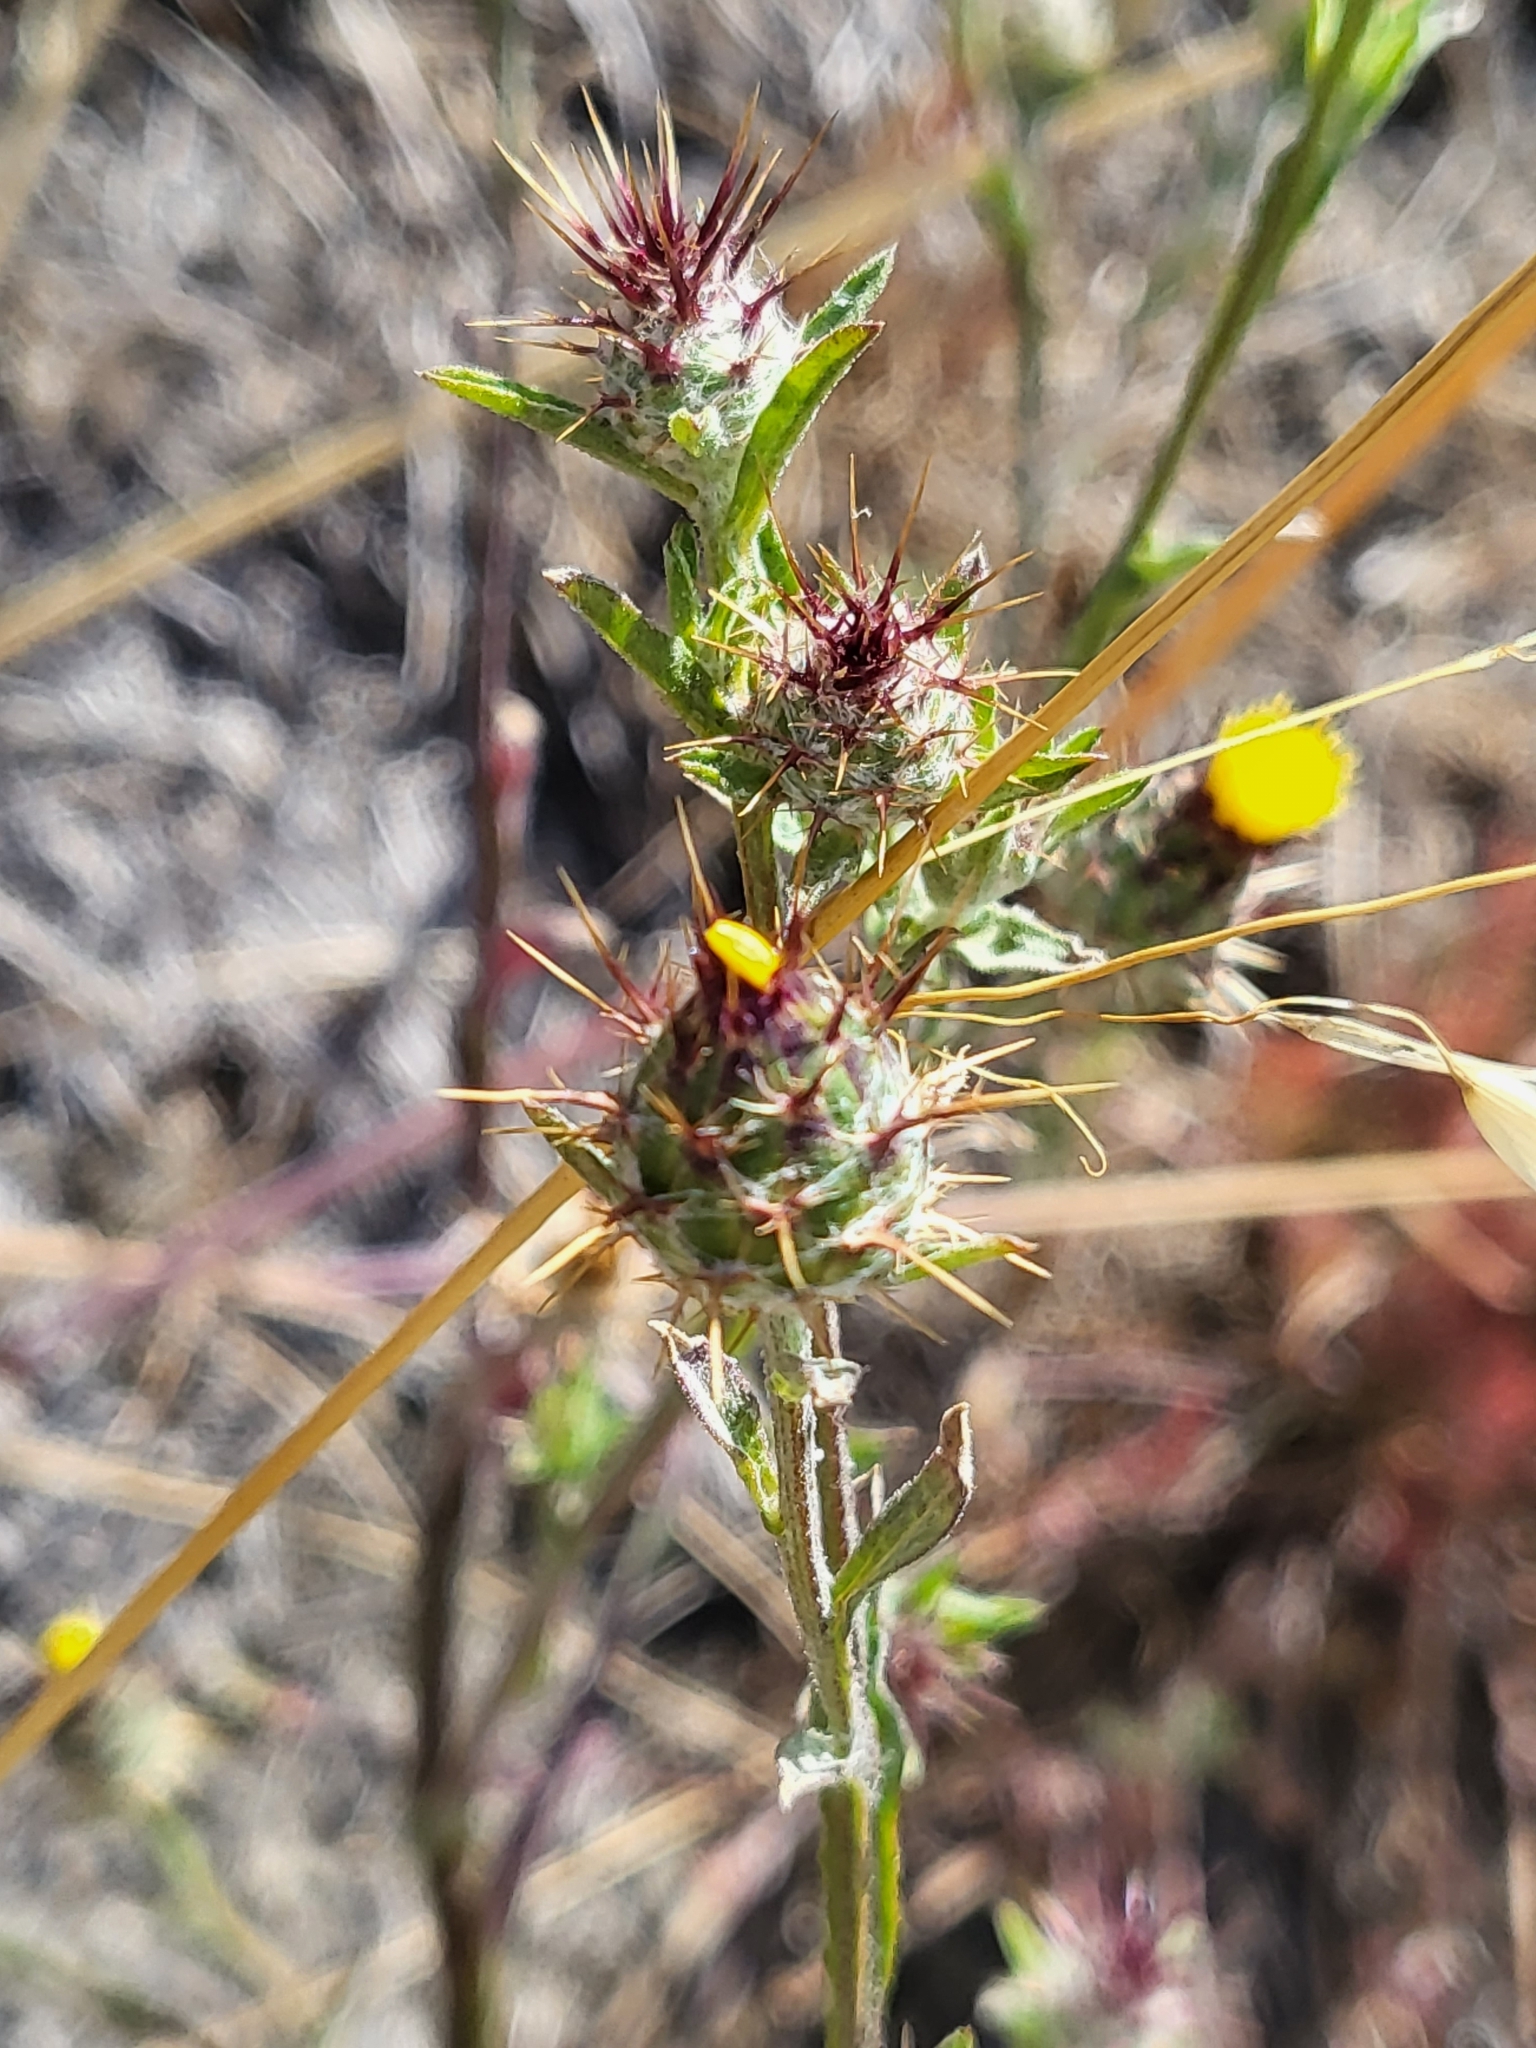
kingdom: Plantae
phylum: Tracheophyta
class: Magnoliopsida
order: Asterales
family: Asteraceae
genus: Centaurea
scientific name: Centaurea melitensis
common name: Maltese star-thistle
